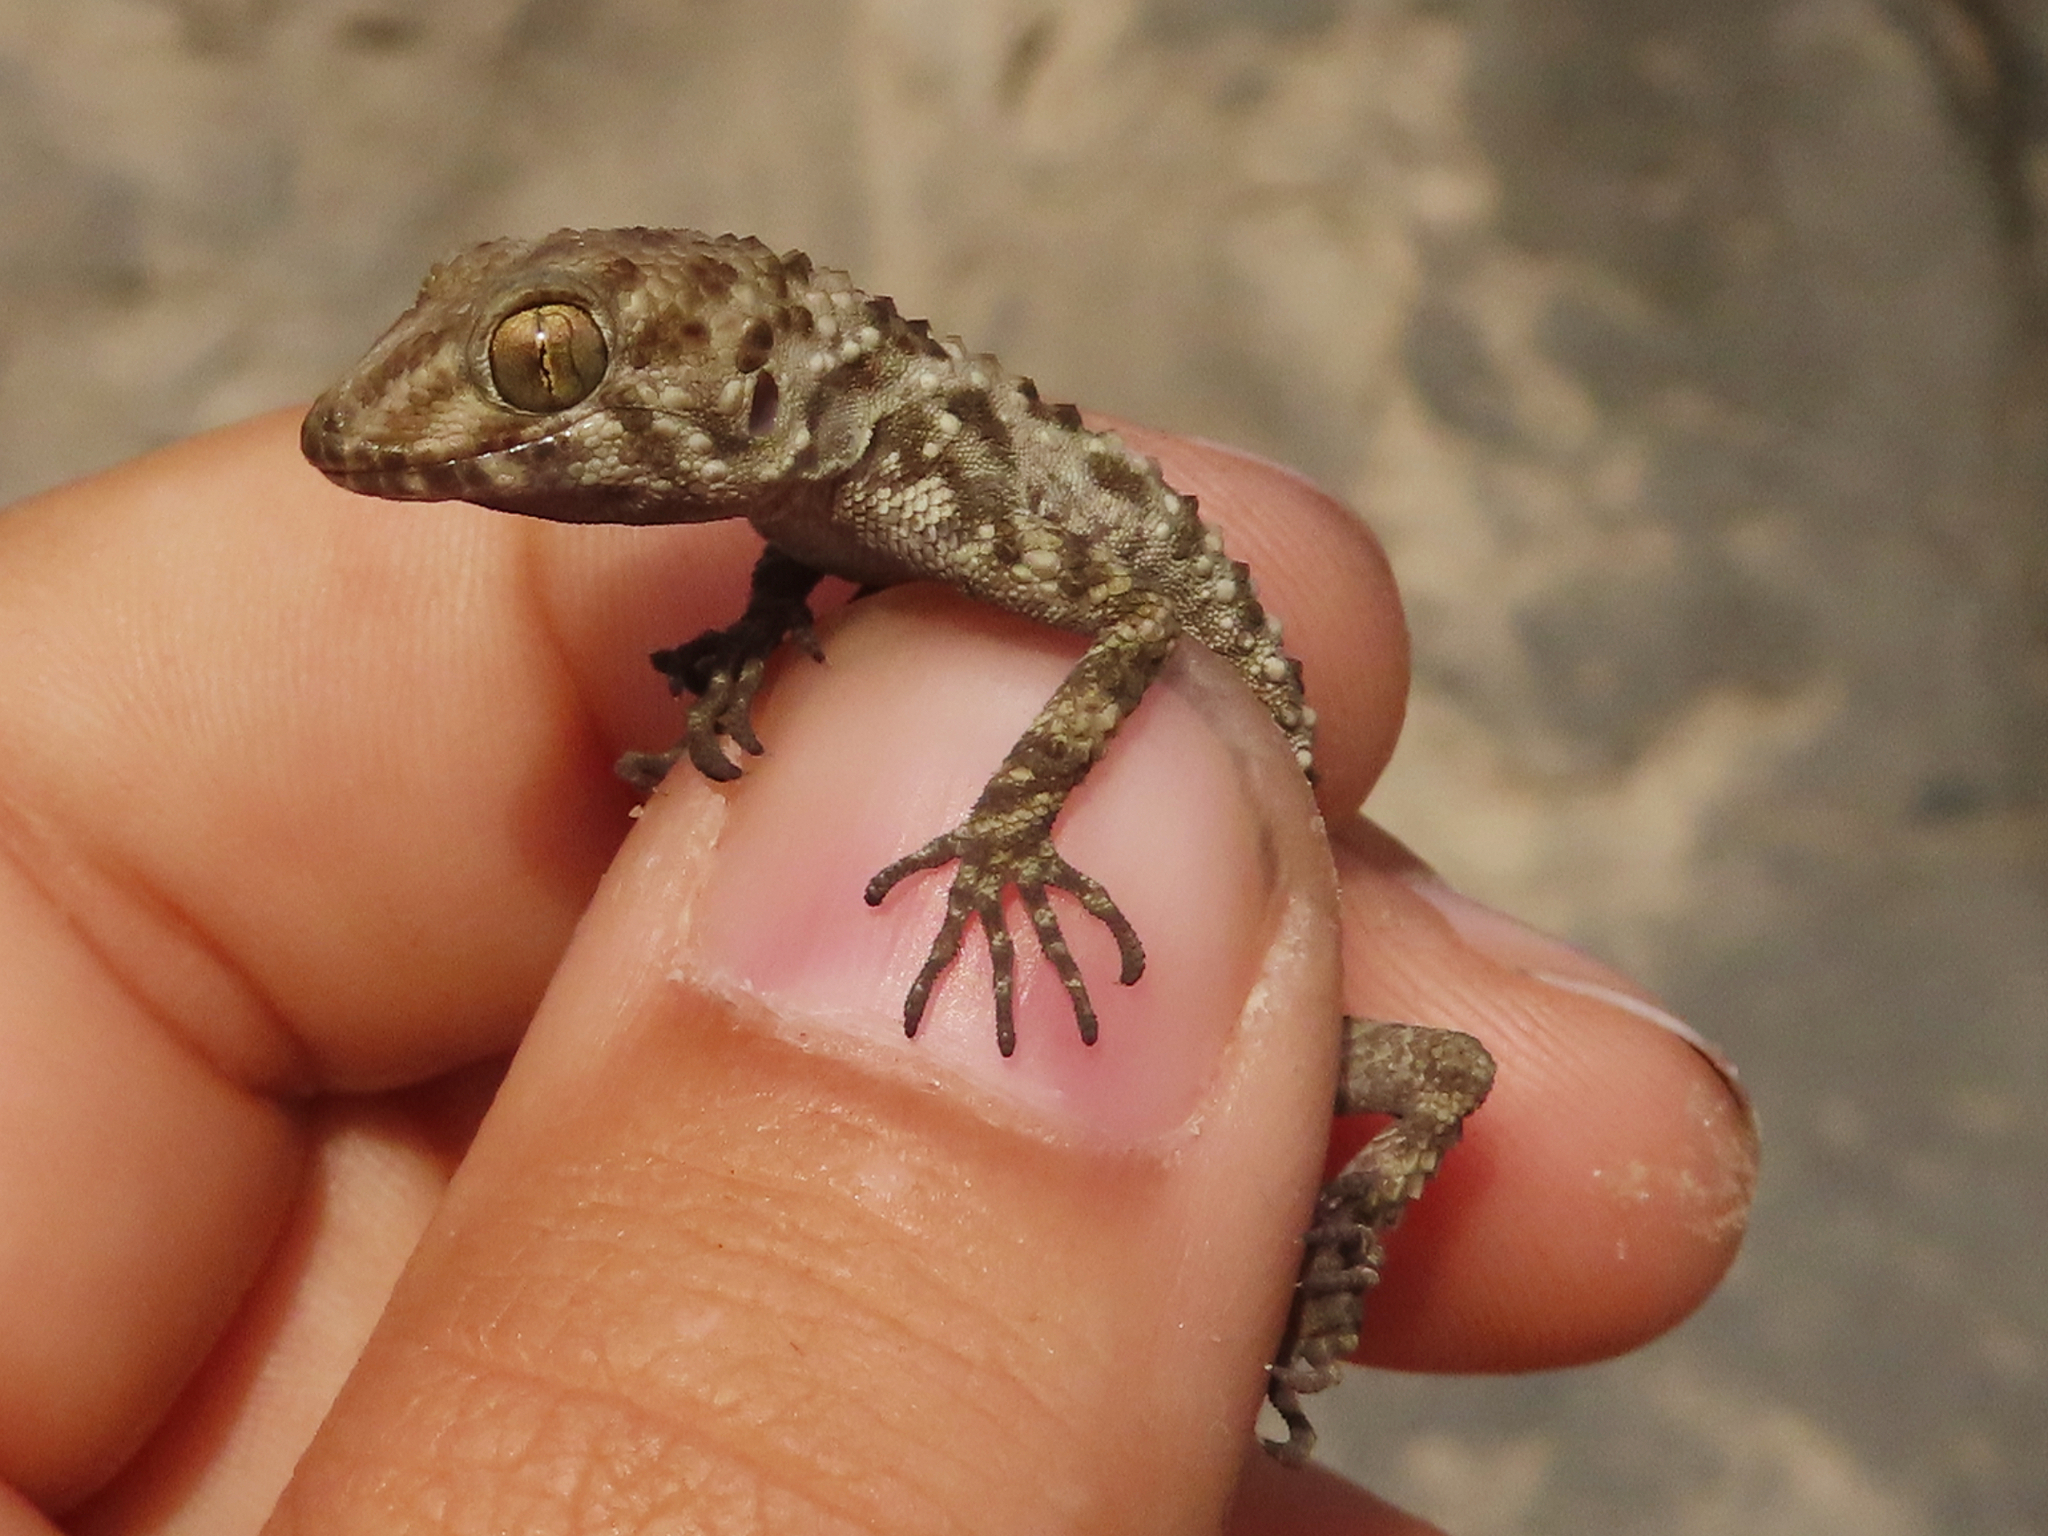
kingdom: Animalia
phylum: Chordata
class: Squamata
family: Gekkonidae
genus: Tenuidactylus
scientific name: Tenuidactylus caspius
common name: Caspian bent-toed gecko
